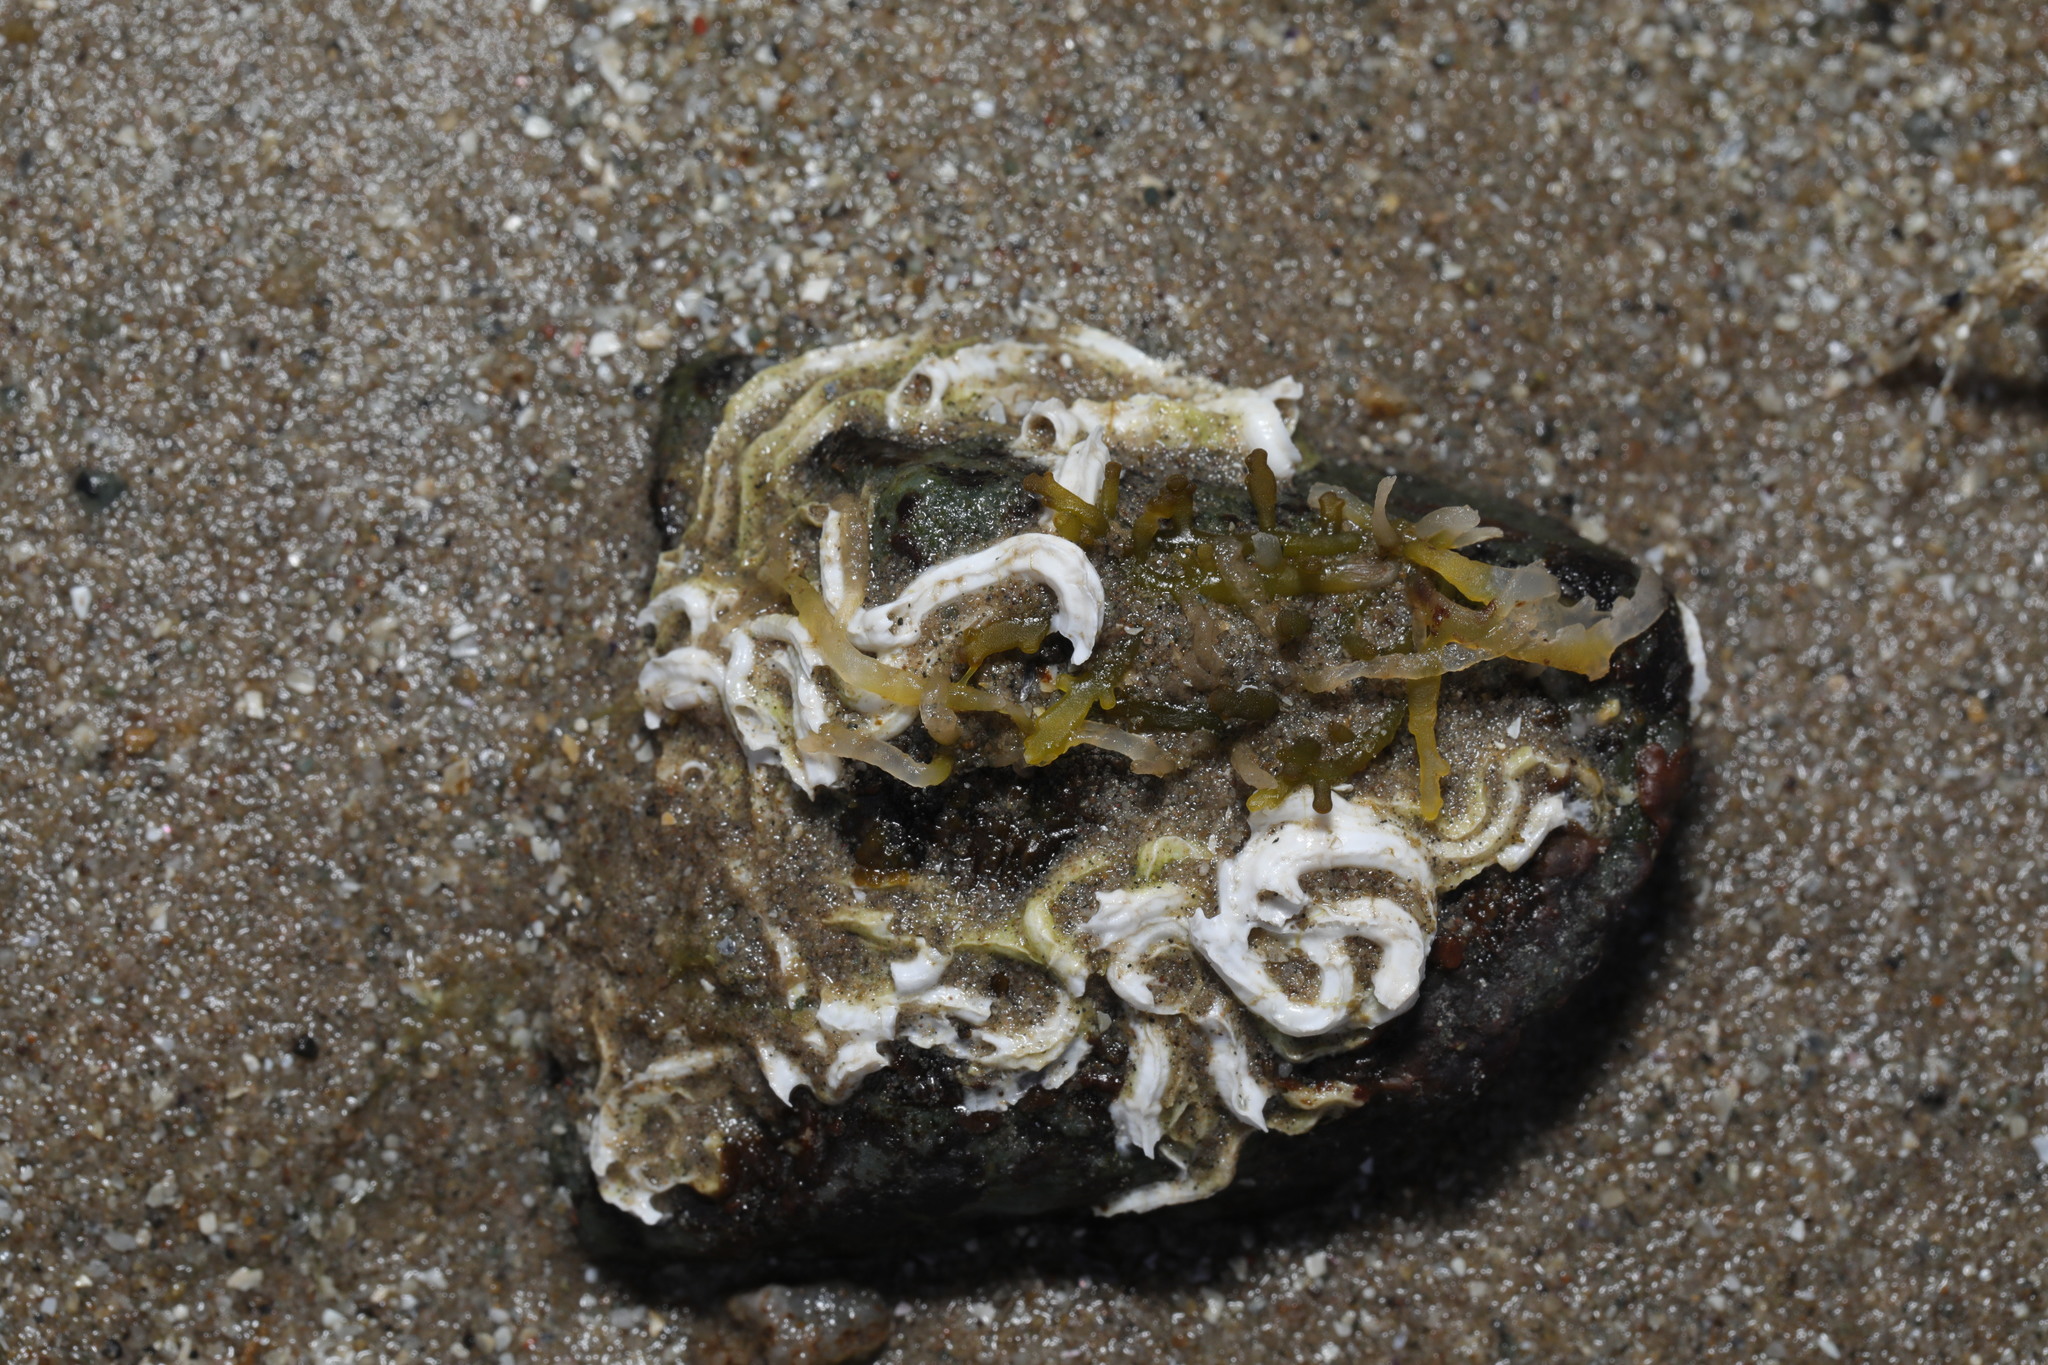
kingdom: Animalia
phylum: Annelida
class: Polychaeta
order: Sabellida
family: Serpulidae
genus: Spirobranchus
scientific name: Spirobranchus lamarcki
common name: Keelworm
